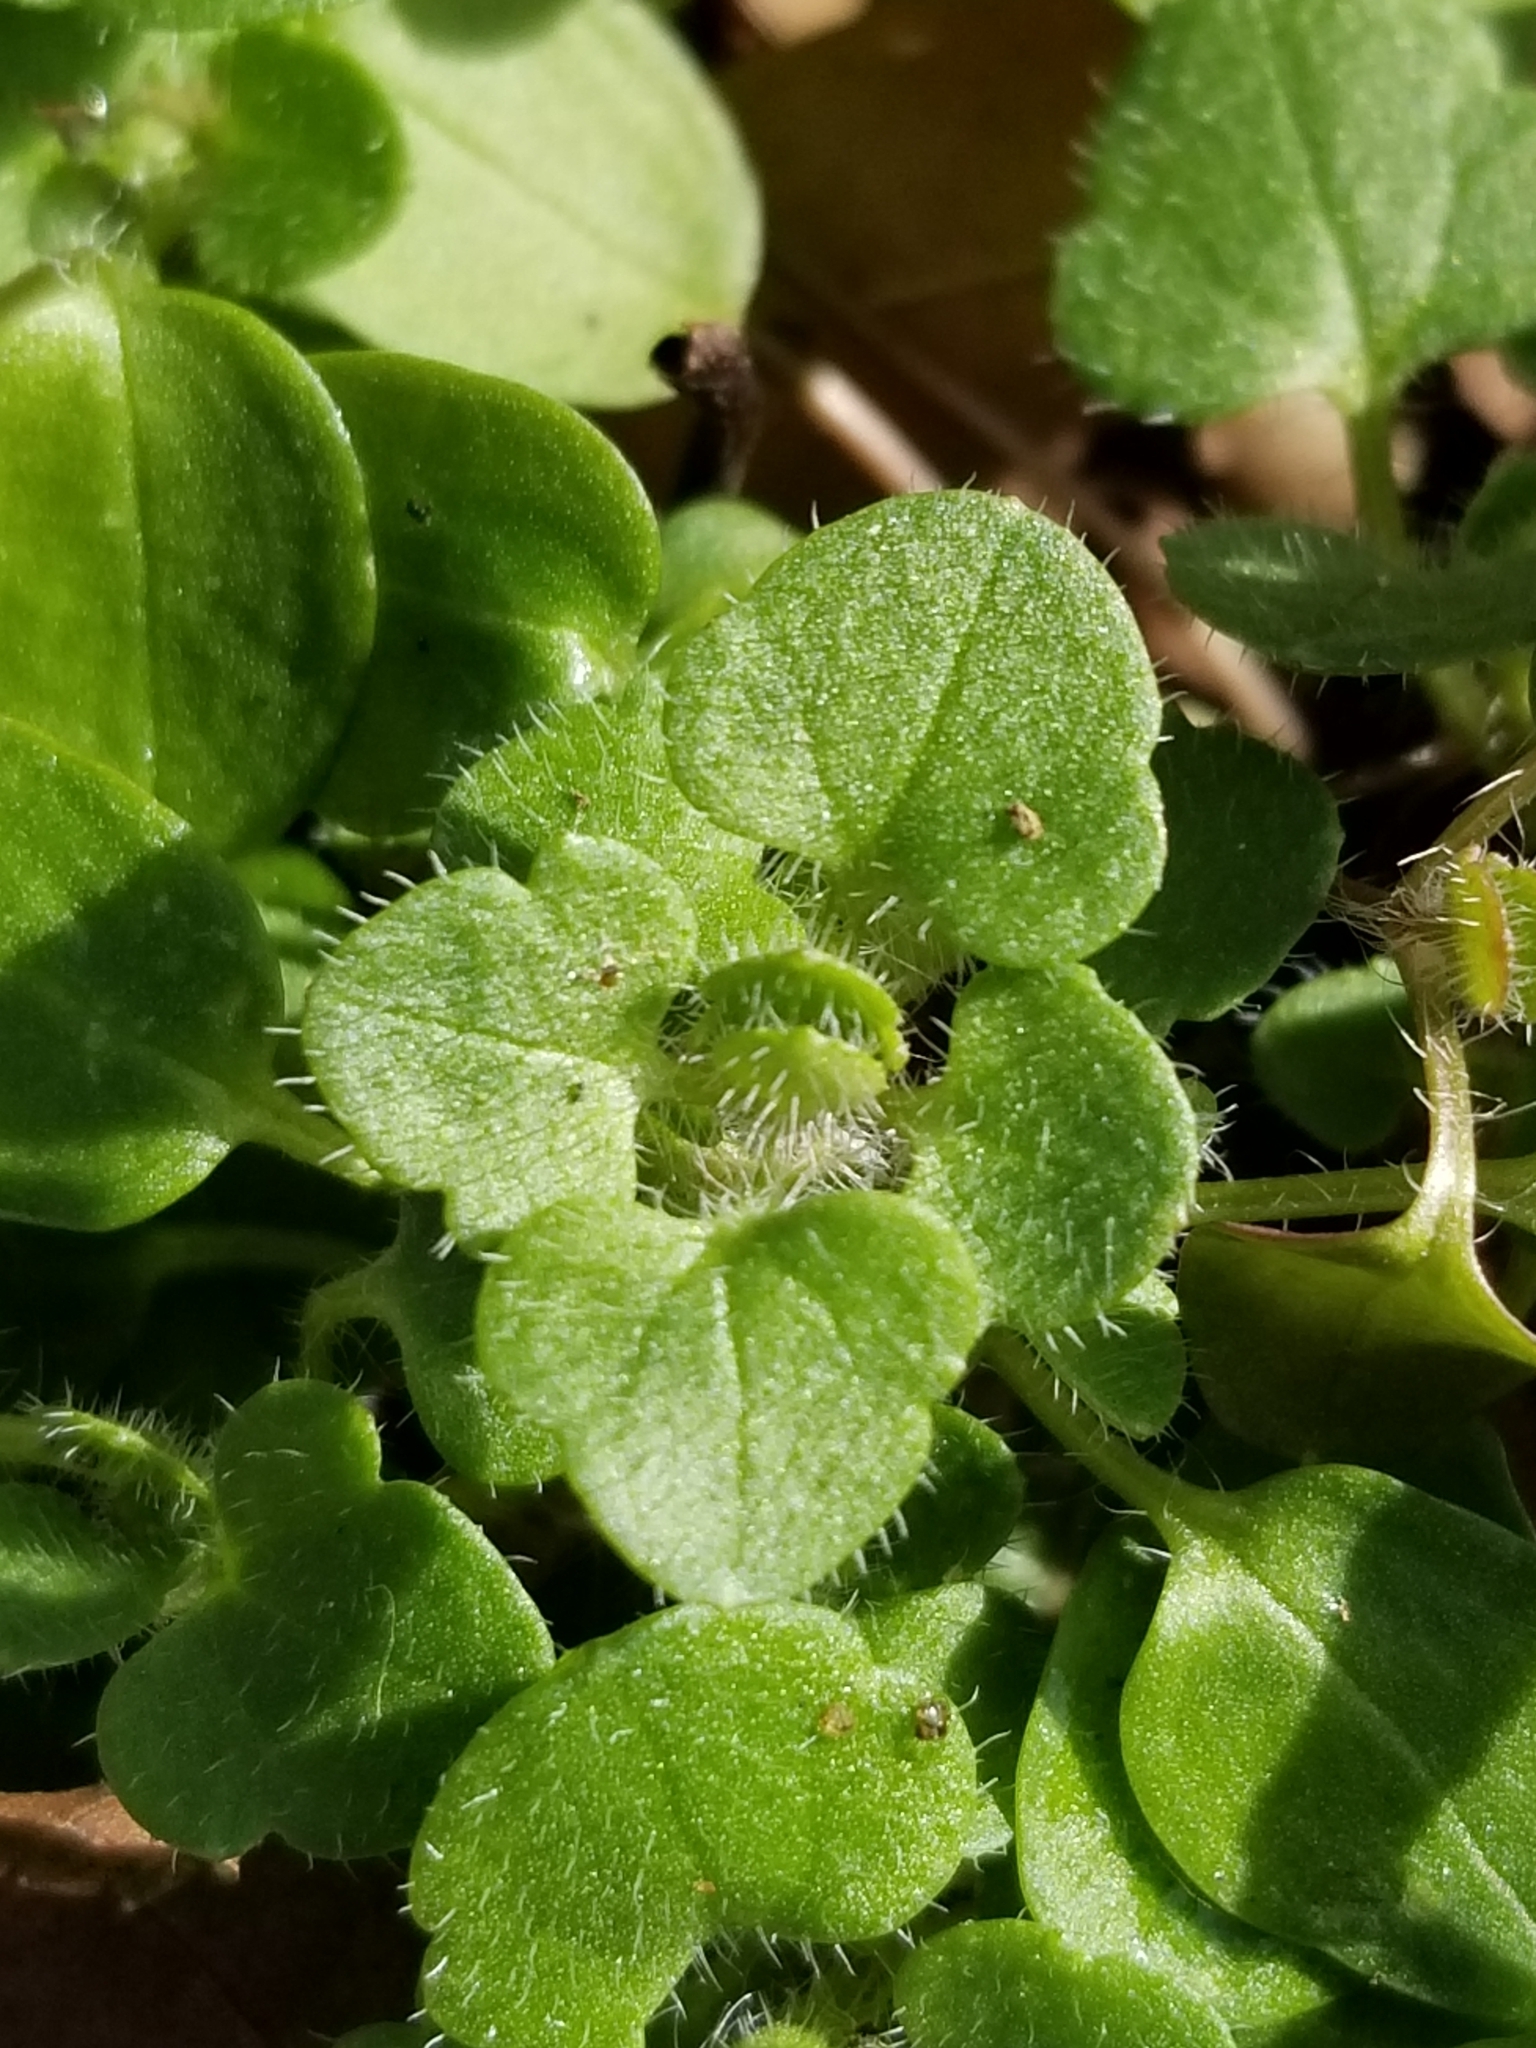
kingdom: Plantae
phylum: Tracheophyta
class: Magnoliopsida
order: Lamiales
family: Plantaginaceae
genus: Veronica
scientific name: Veronica hederifolia
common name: Ivy-leaved speedwell
